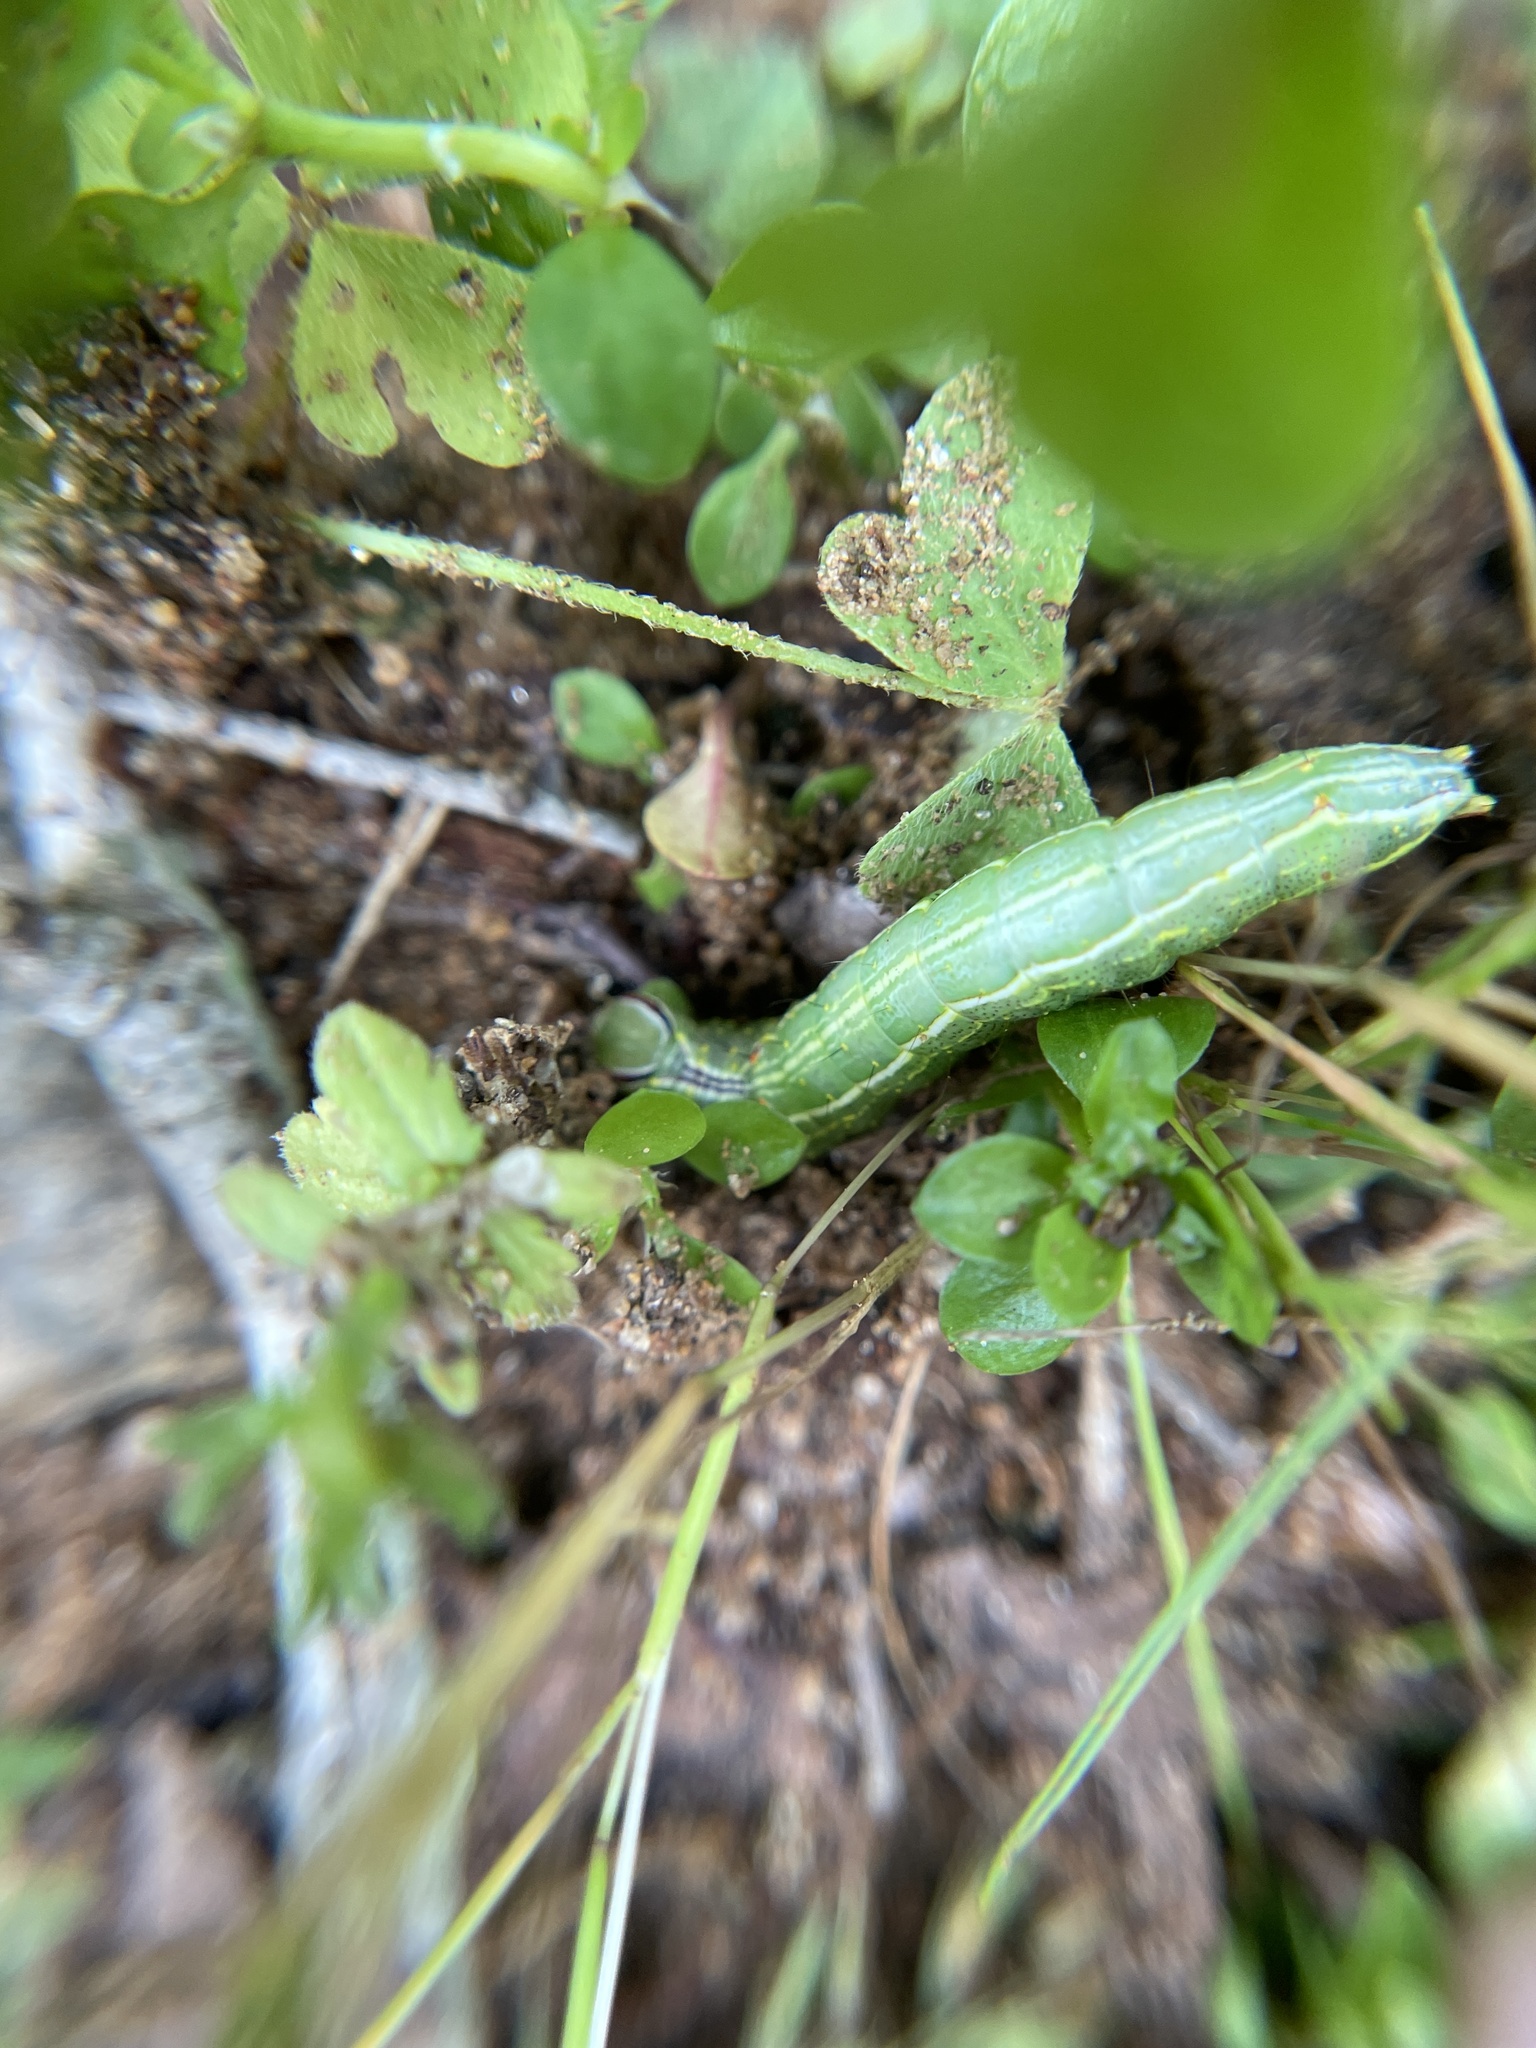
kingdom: Animalia
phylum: Arthropoda
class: Insecta
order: Lepidoptera
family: Notodontidae
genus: Lochmaeus
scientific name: Lochmaeus bilineata
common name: Double-lined prominent
